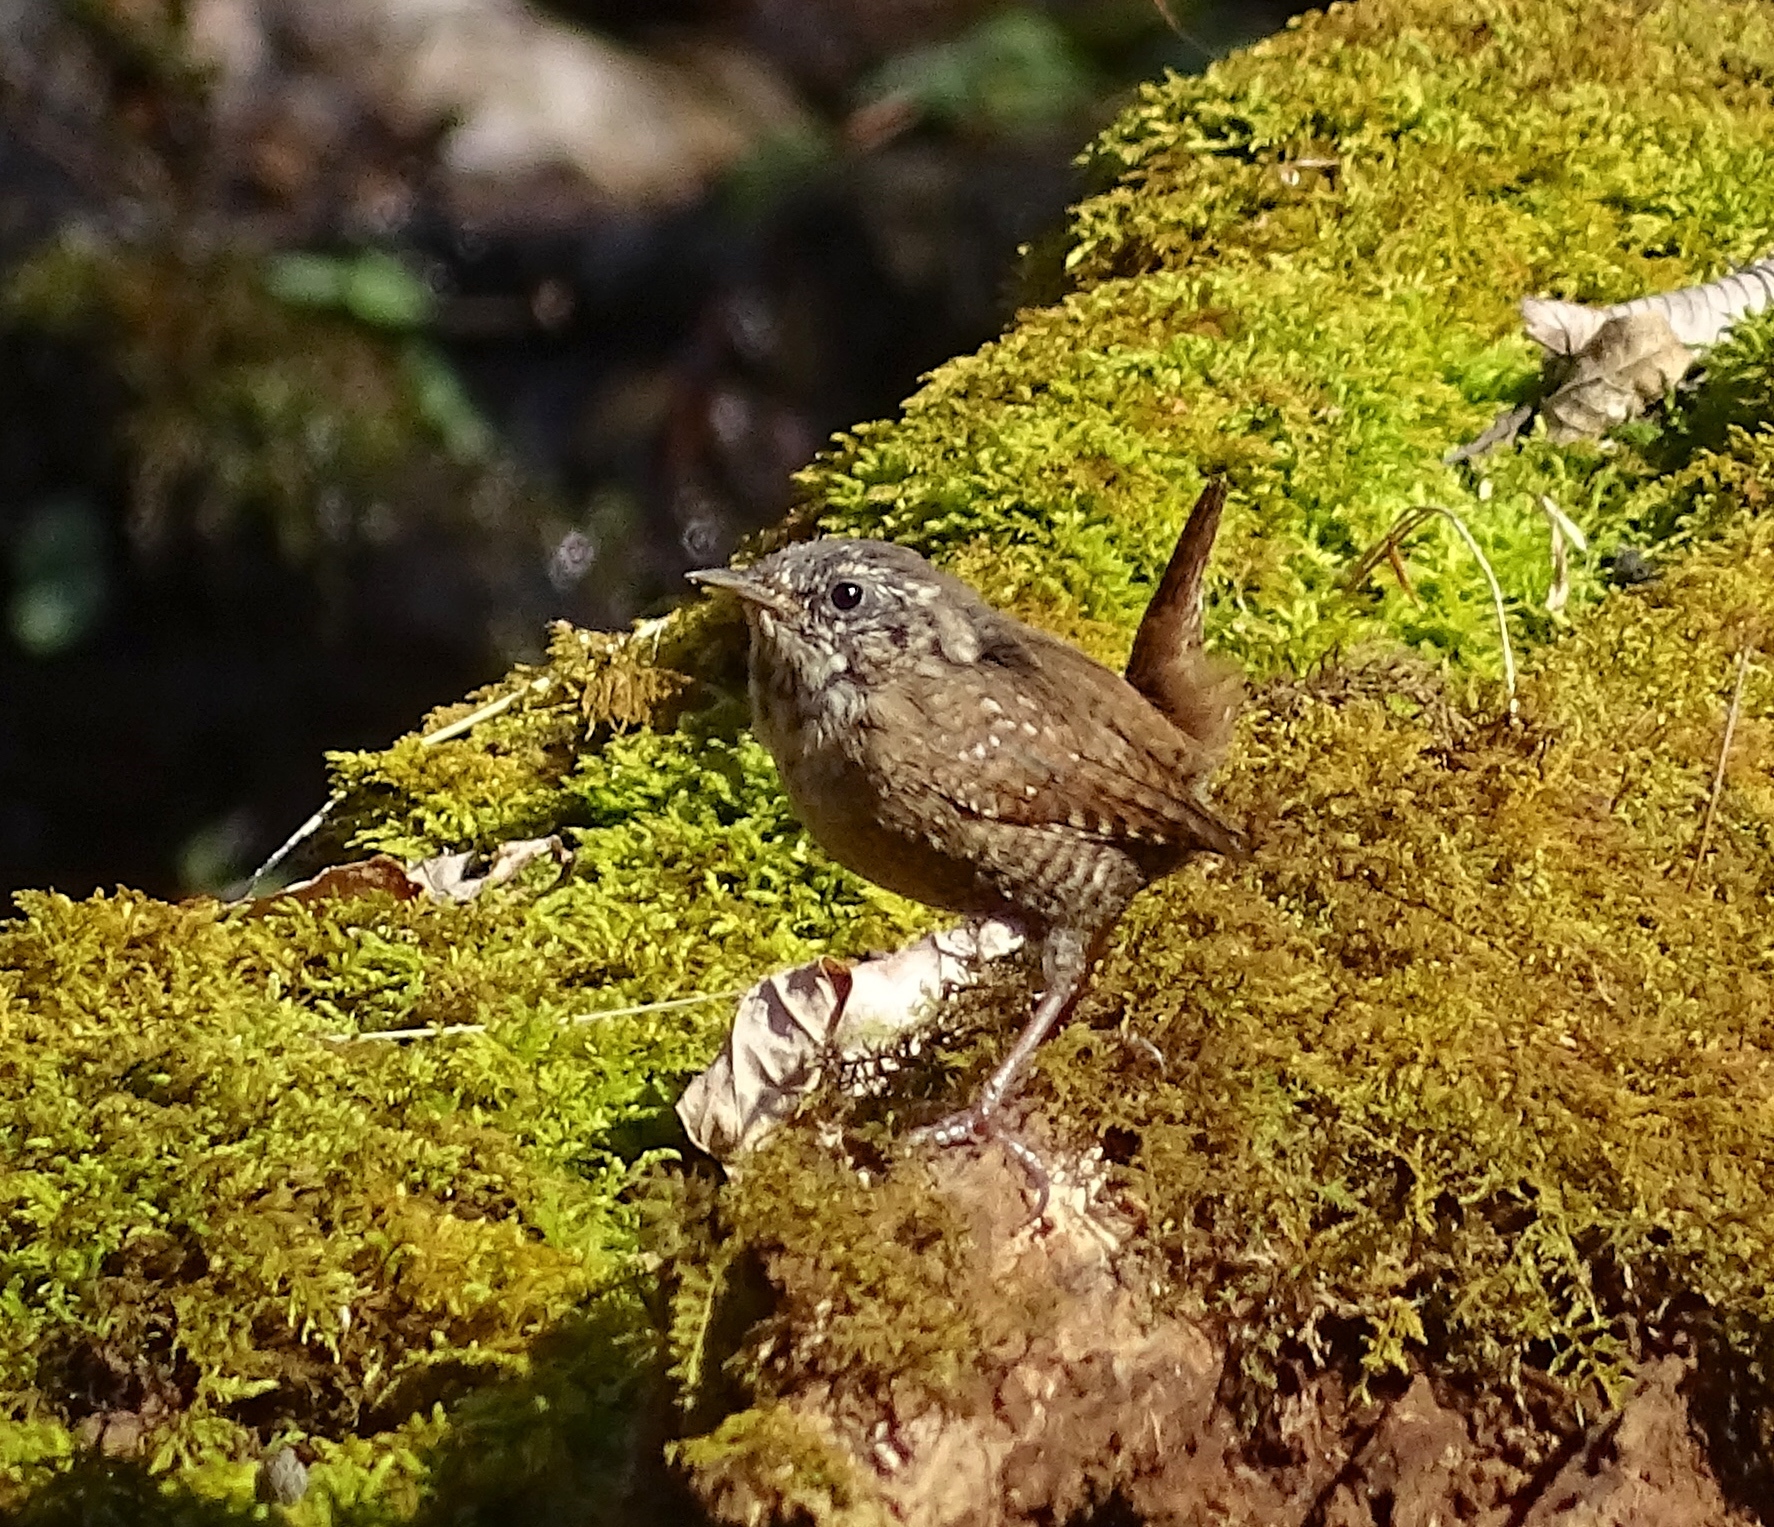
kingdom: Animalia
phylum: Chordata
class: Aves
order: Passeriformes
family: Troglodytidae
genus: Troglodytes
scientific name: Troglodytes hiemalis
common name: Winter wren
